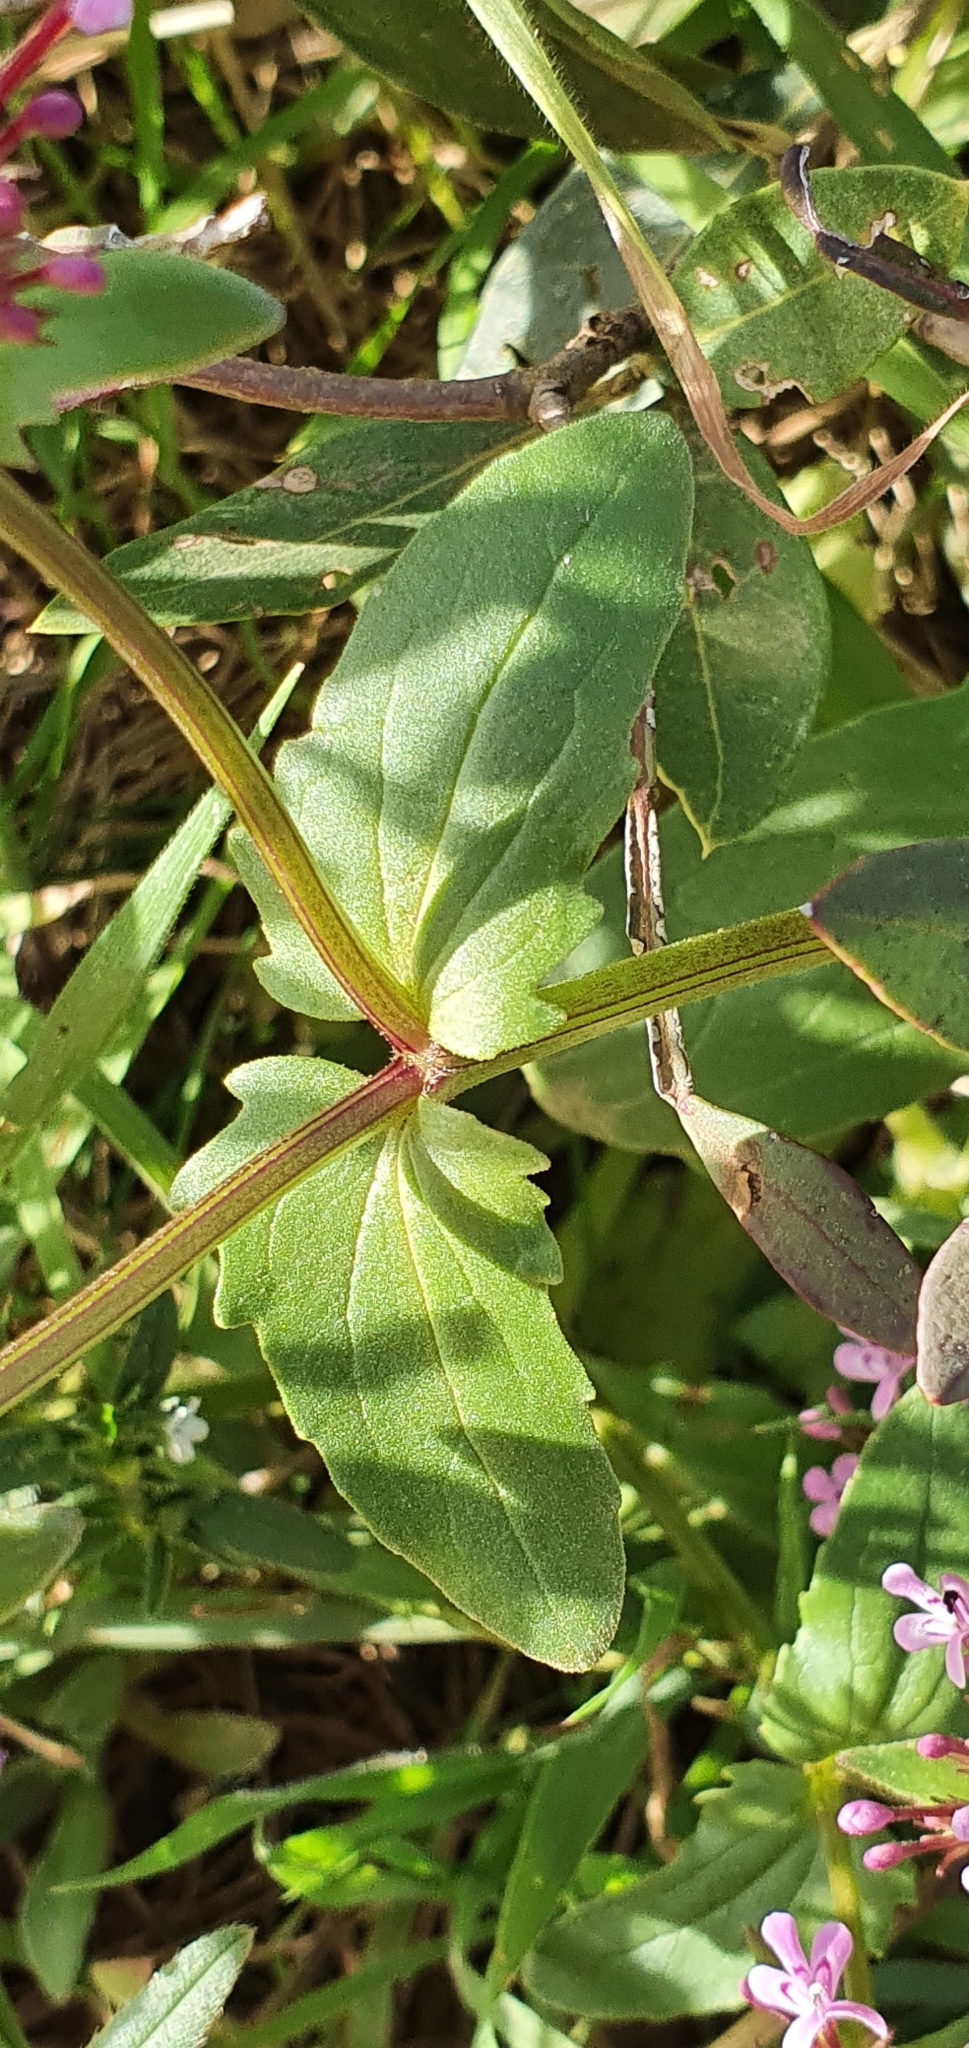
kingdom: Plantae
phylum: Tracheophyta
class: Magnoliopsida
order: Dipsacales
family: Caprifoliaceae
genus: Fedia
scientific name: Fedia graciliflora
